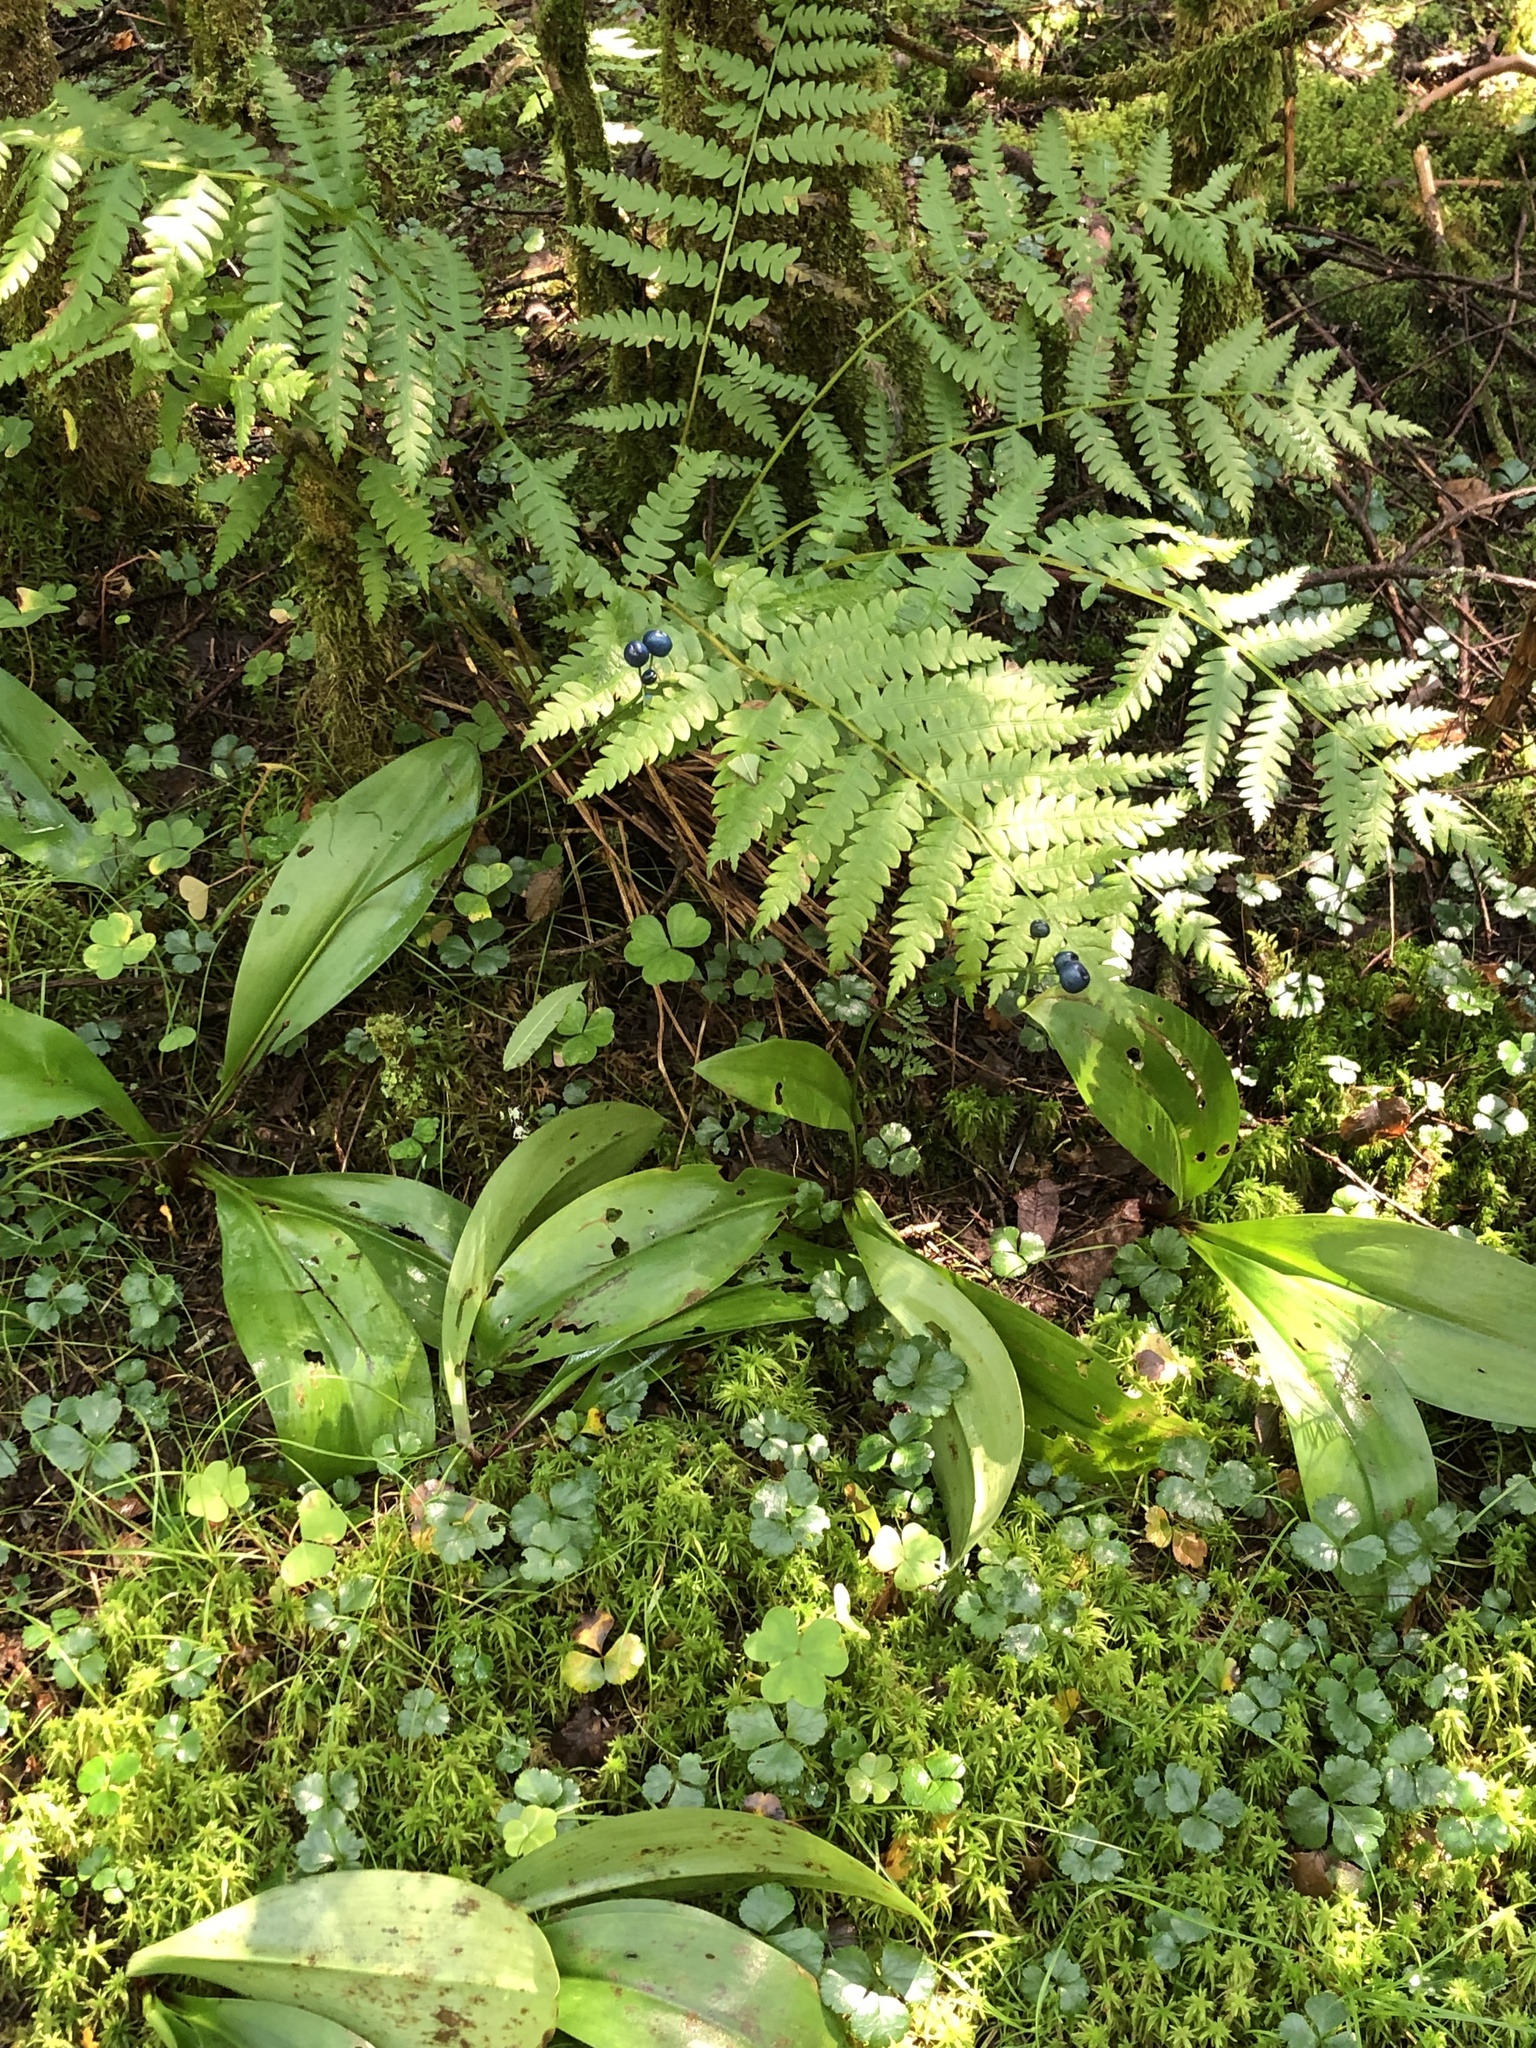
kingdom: Plantae
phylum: Tracheophyta
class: Liliopsida
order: Liliales
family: Liliaceae
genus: Clintonia
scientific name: Clintonia borealis
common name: Yellow clintonia
